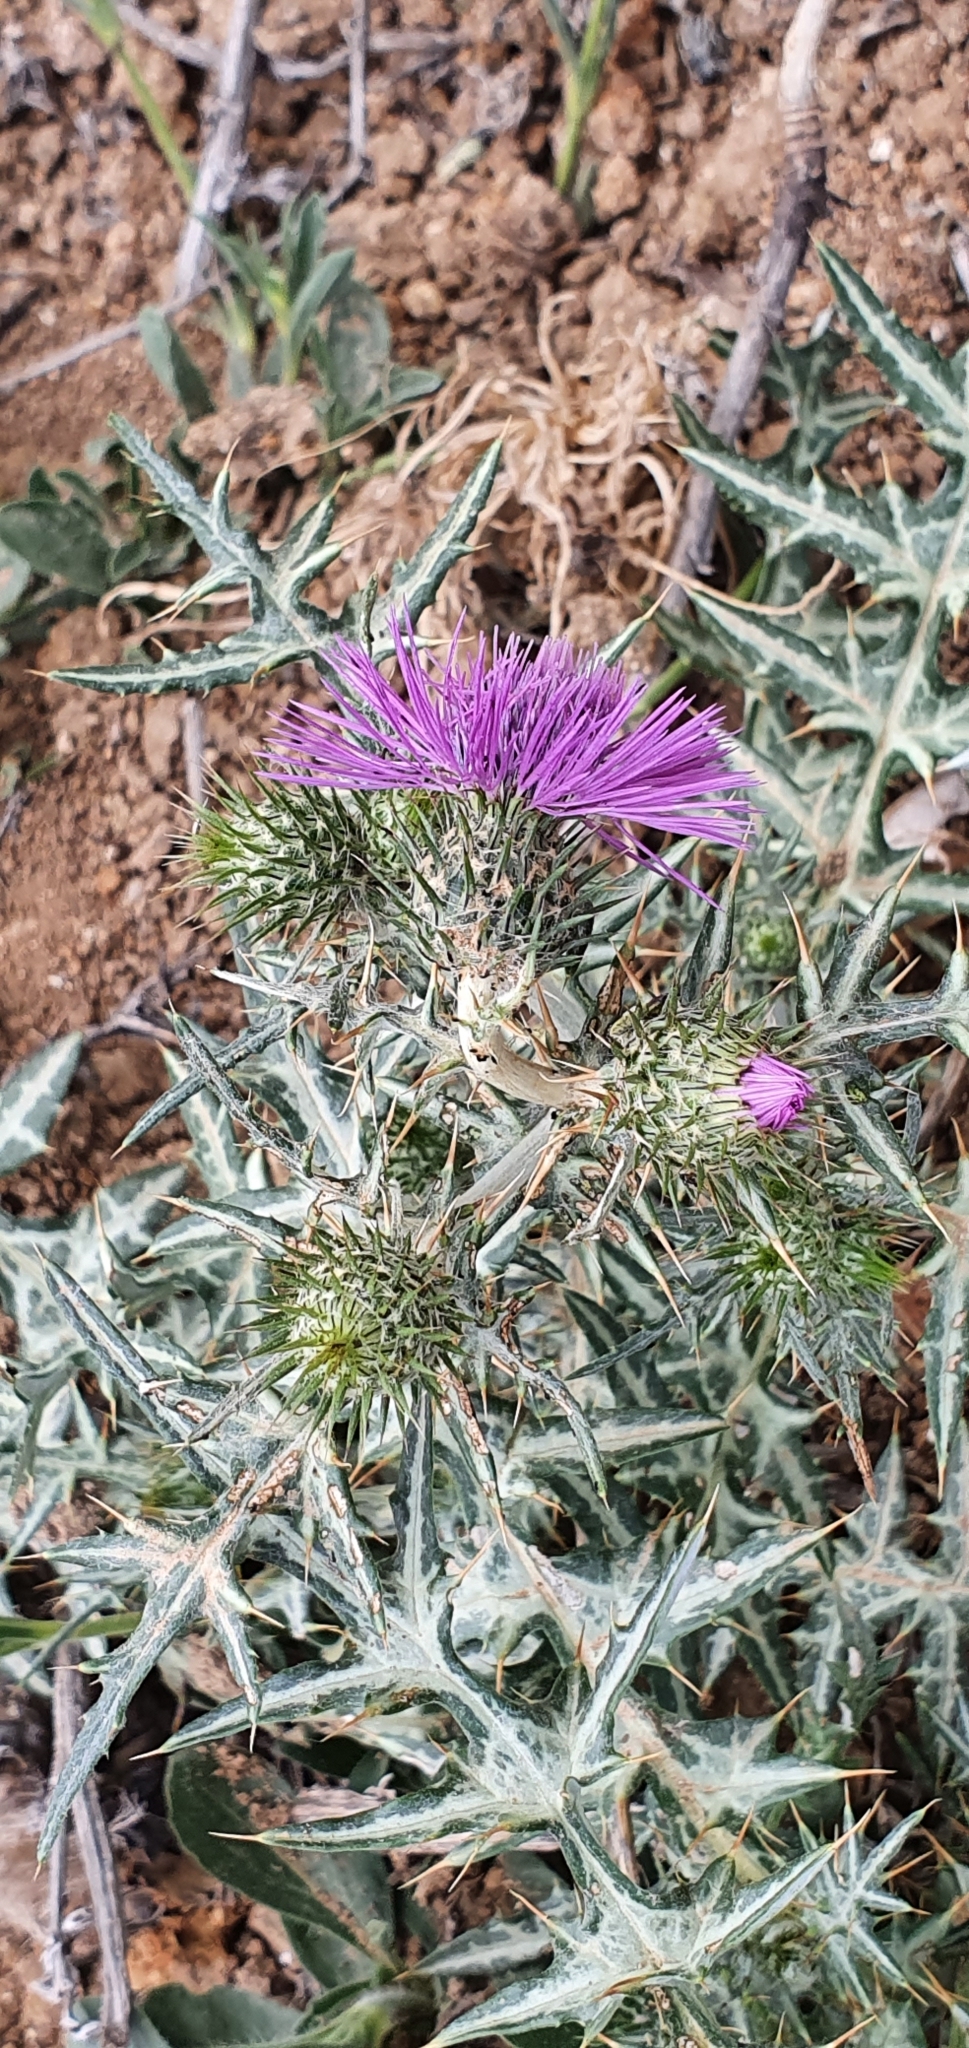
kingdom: Plantae
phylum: Tracheophyta
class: Magnoliopsida
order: Asterales
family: Asteraceae
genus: Galactites
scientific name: Galactites tomentosa
